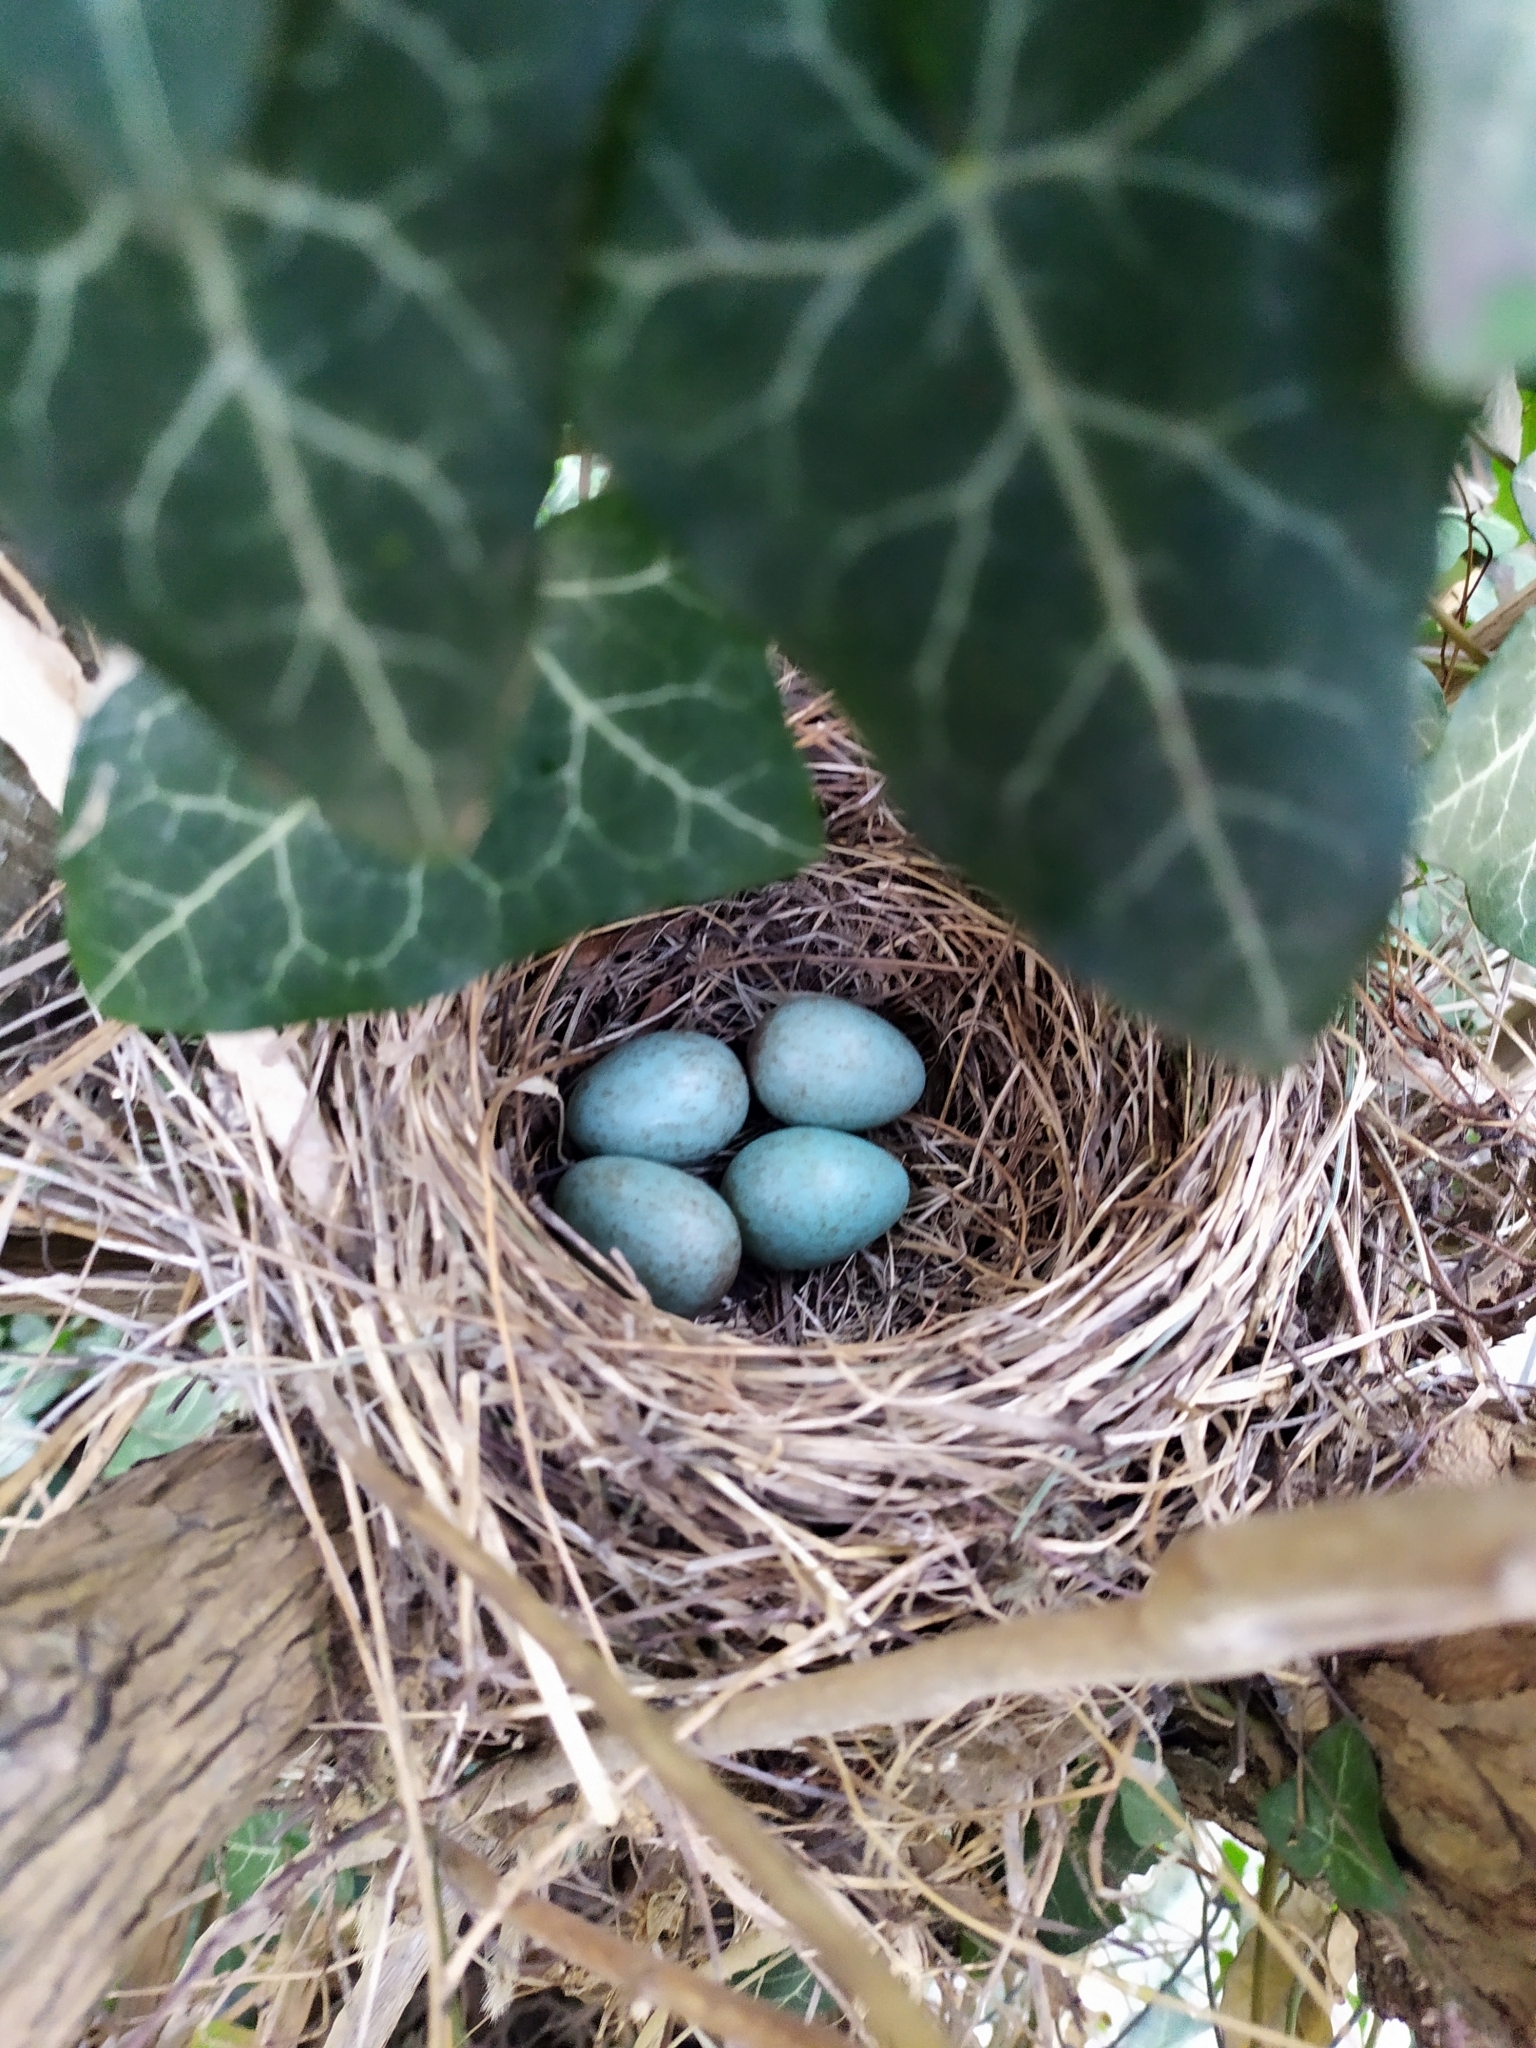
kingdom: Animalia
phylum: Chordata
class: Aves
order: Passeriformes
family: Turdidae
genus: Turdus
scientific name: Turdus merula
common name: Common blackbird
